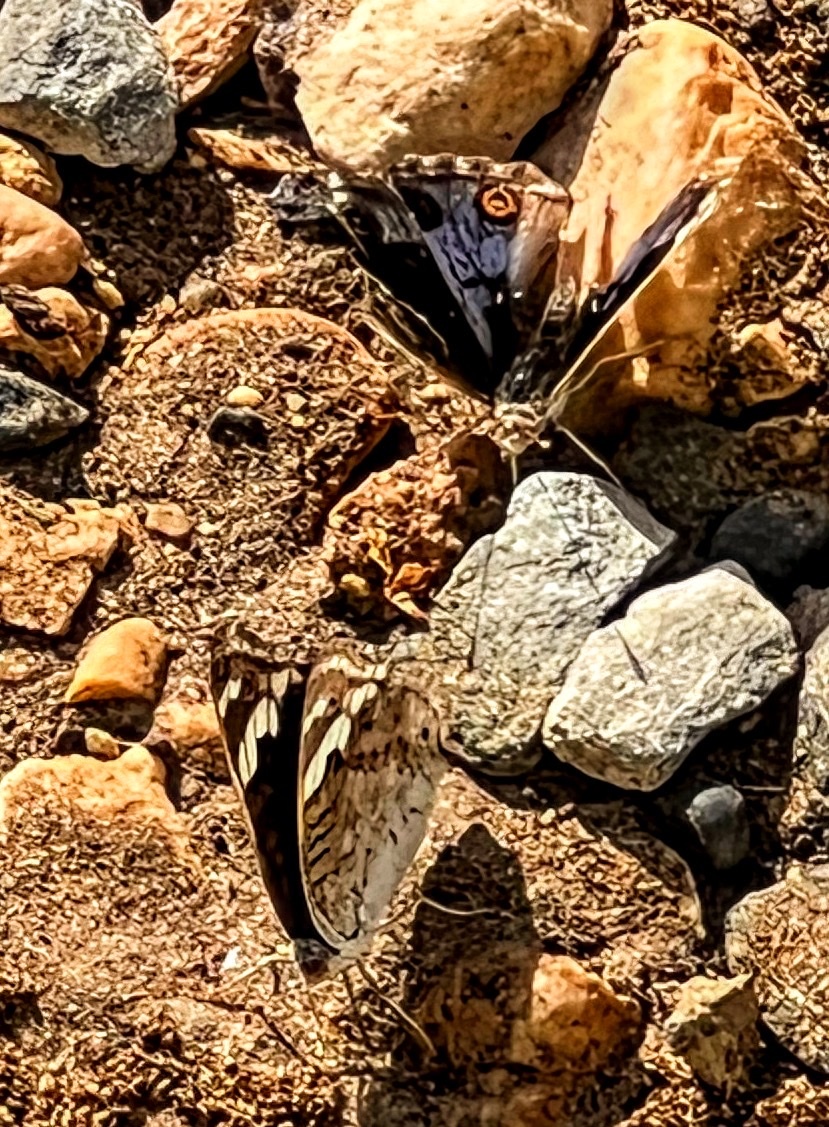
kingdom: Animalia
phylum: Arthropoda
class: Insecta
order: Lepidoptera
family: Nymphalidae
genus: Junonia
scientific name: Junonia orithya
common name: Blue pansy
